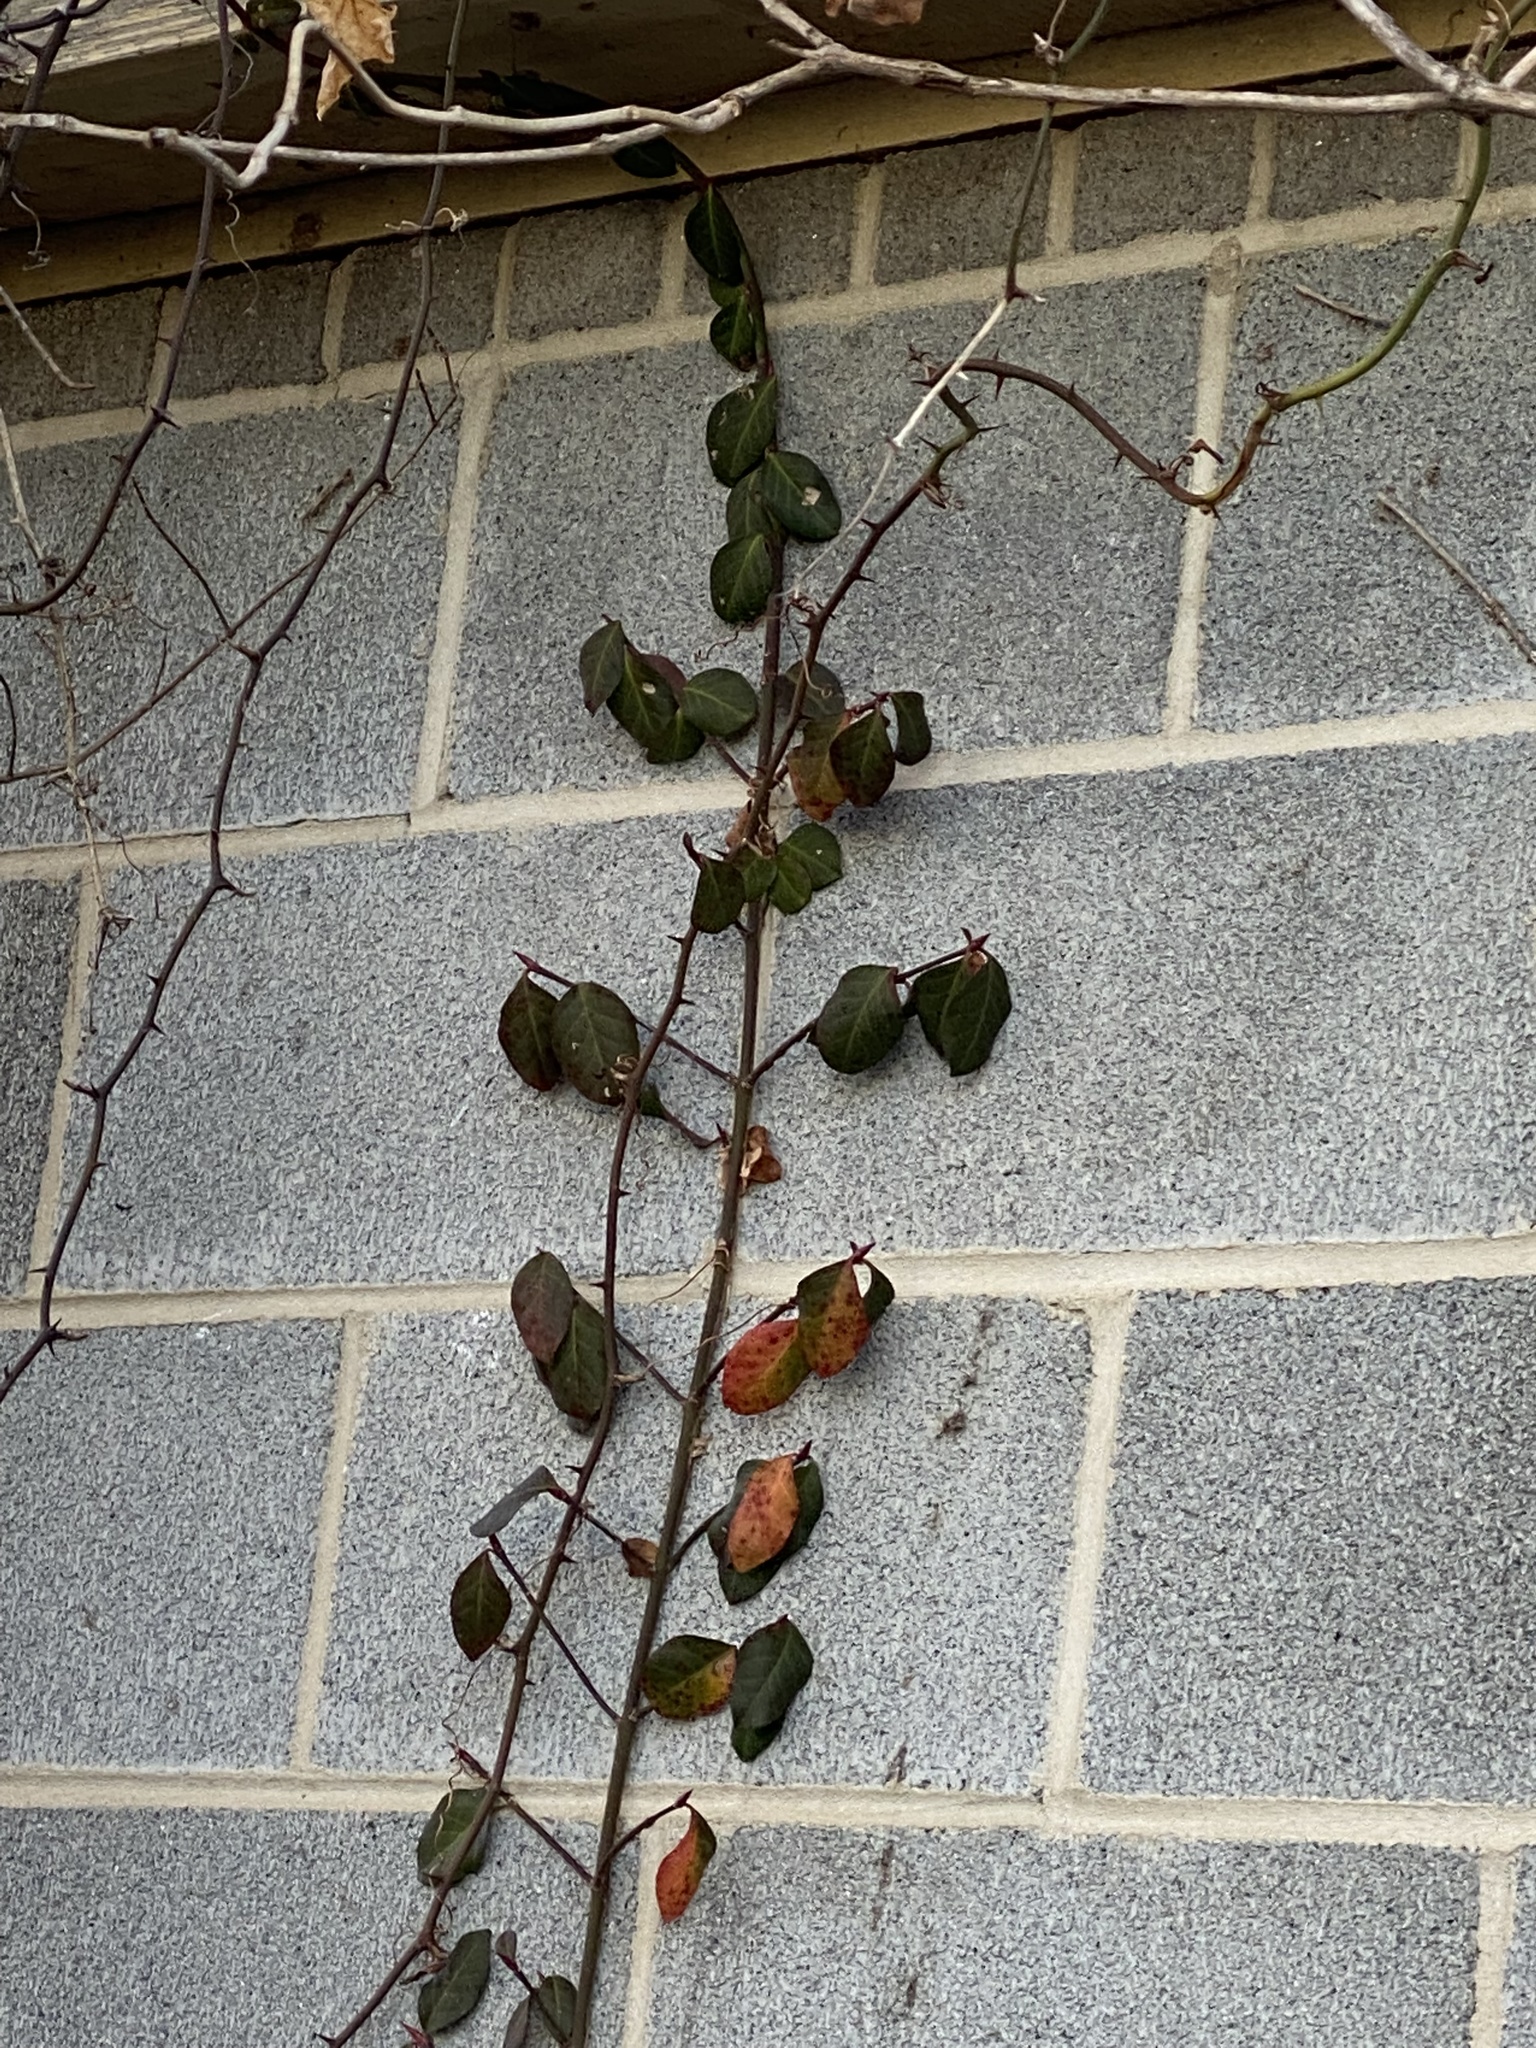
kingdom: Plantae
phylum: Tracheophyta
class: Magnoliopsida
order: Celastrales
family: Celastraceae
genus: Euonymus
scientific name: Euonymus fortunei
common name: Climbing euonymus
